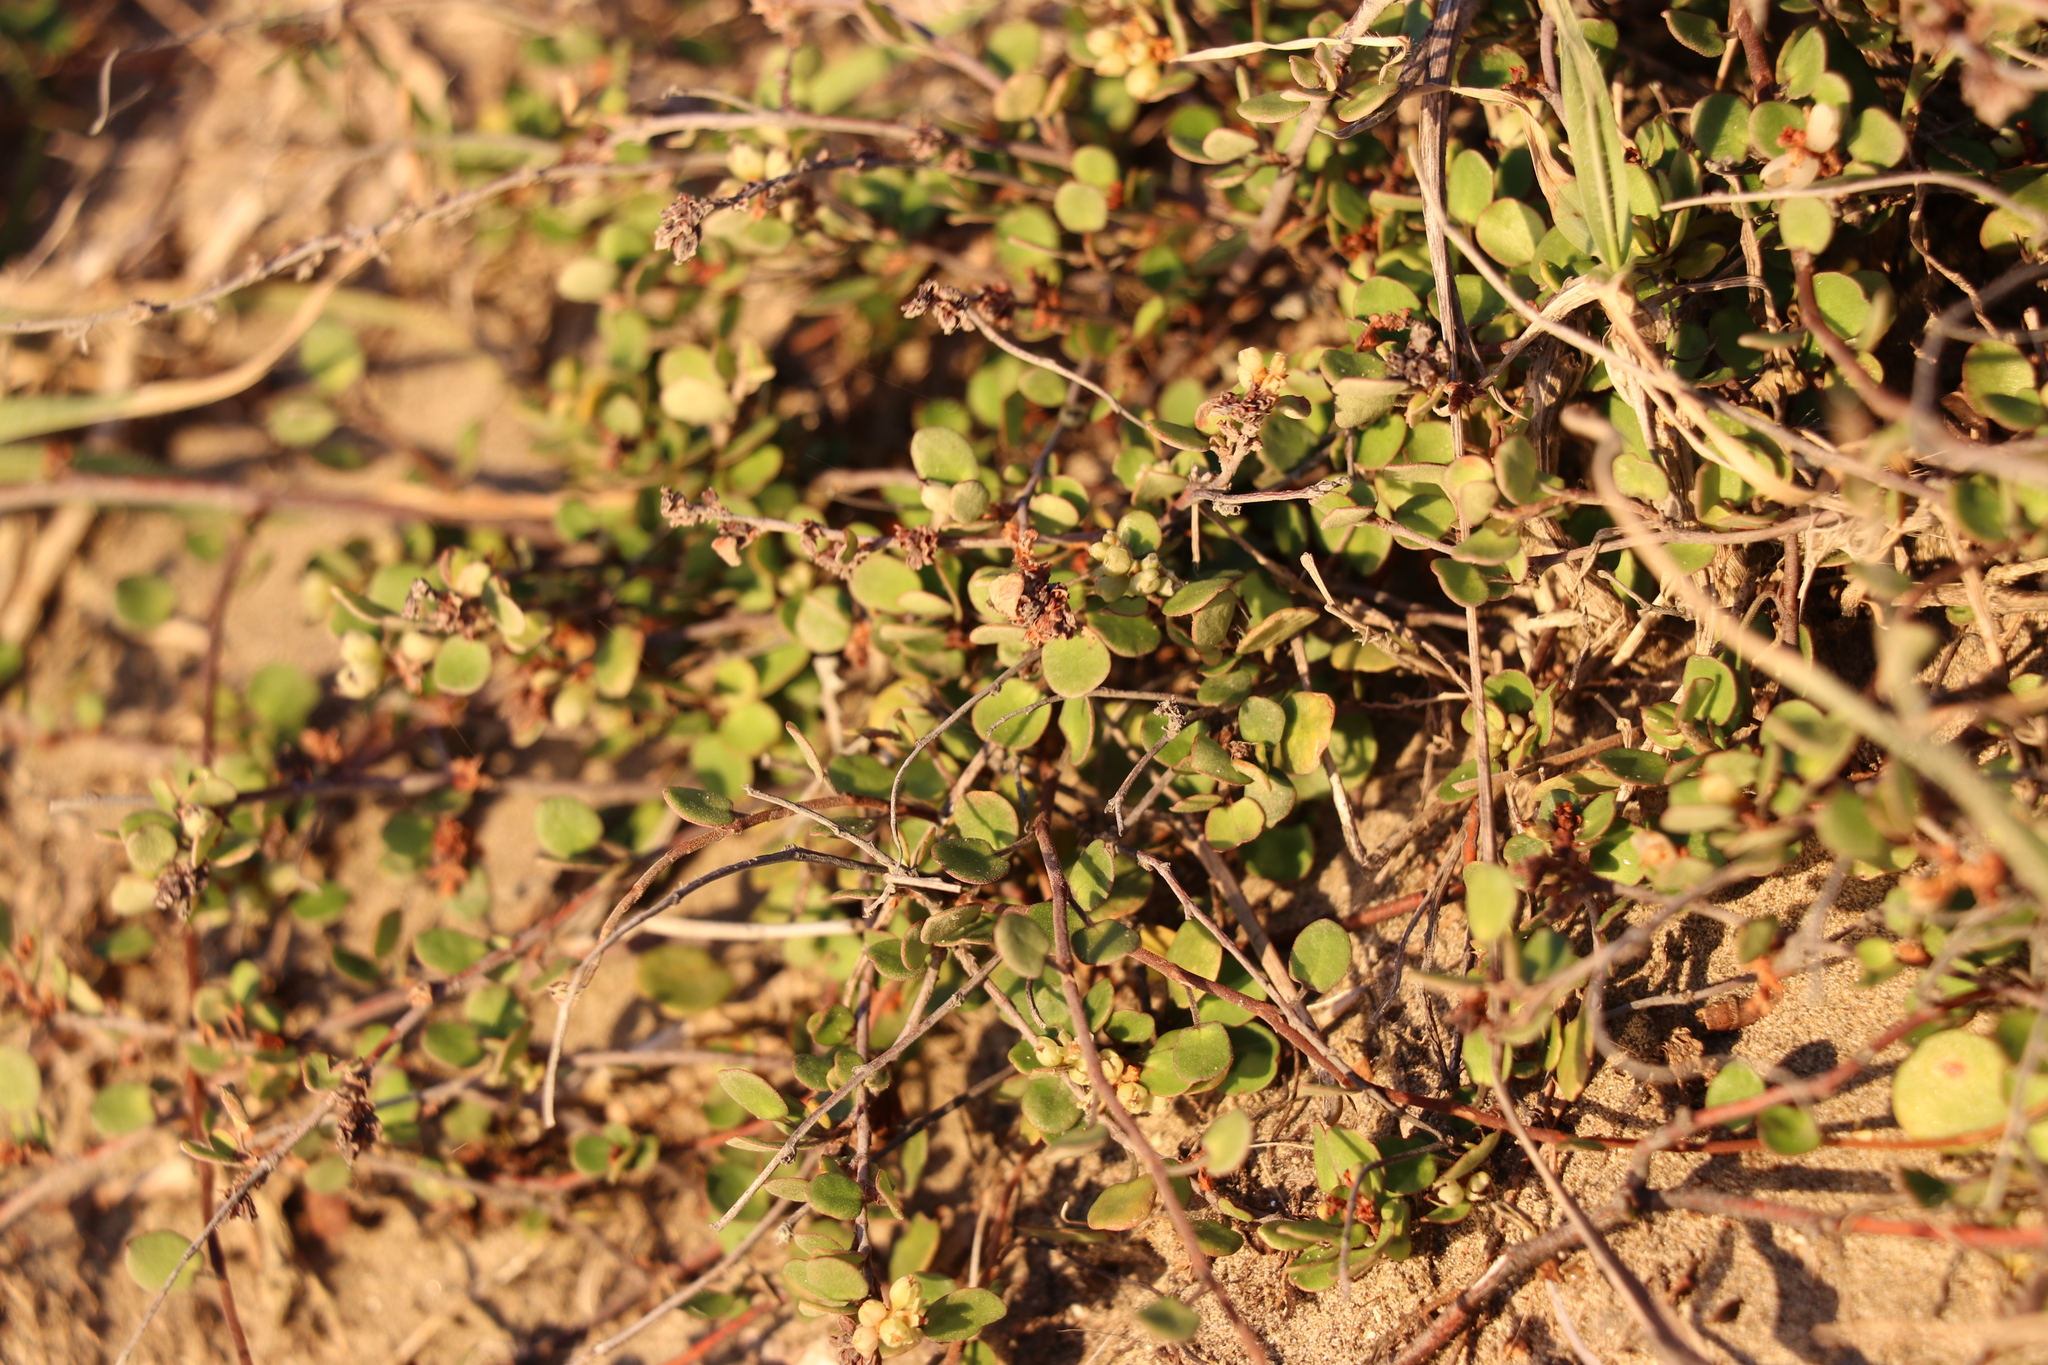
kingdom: Plantae
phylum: Tracheophyta
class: Magnoliopsida
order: Caryophyllales
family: Polygonaceae
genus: Muehlenbeckia
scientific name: Muehlenbeckia complexa
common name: Wireplant
